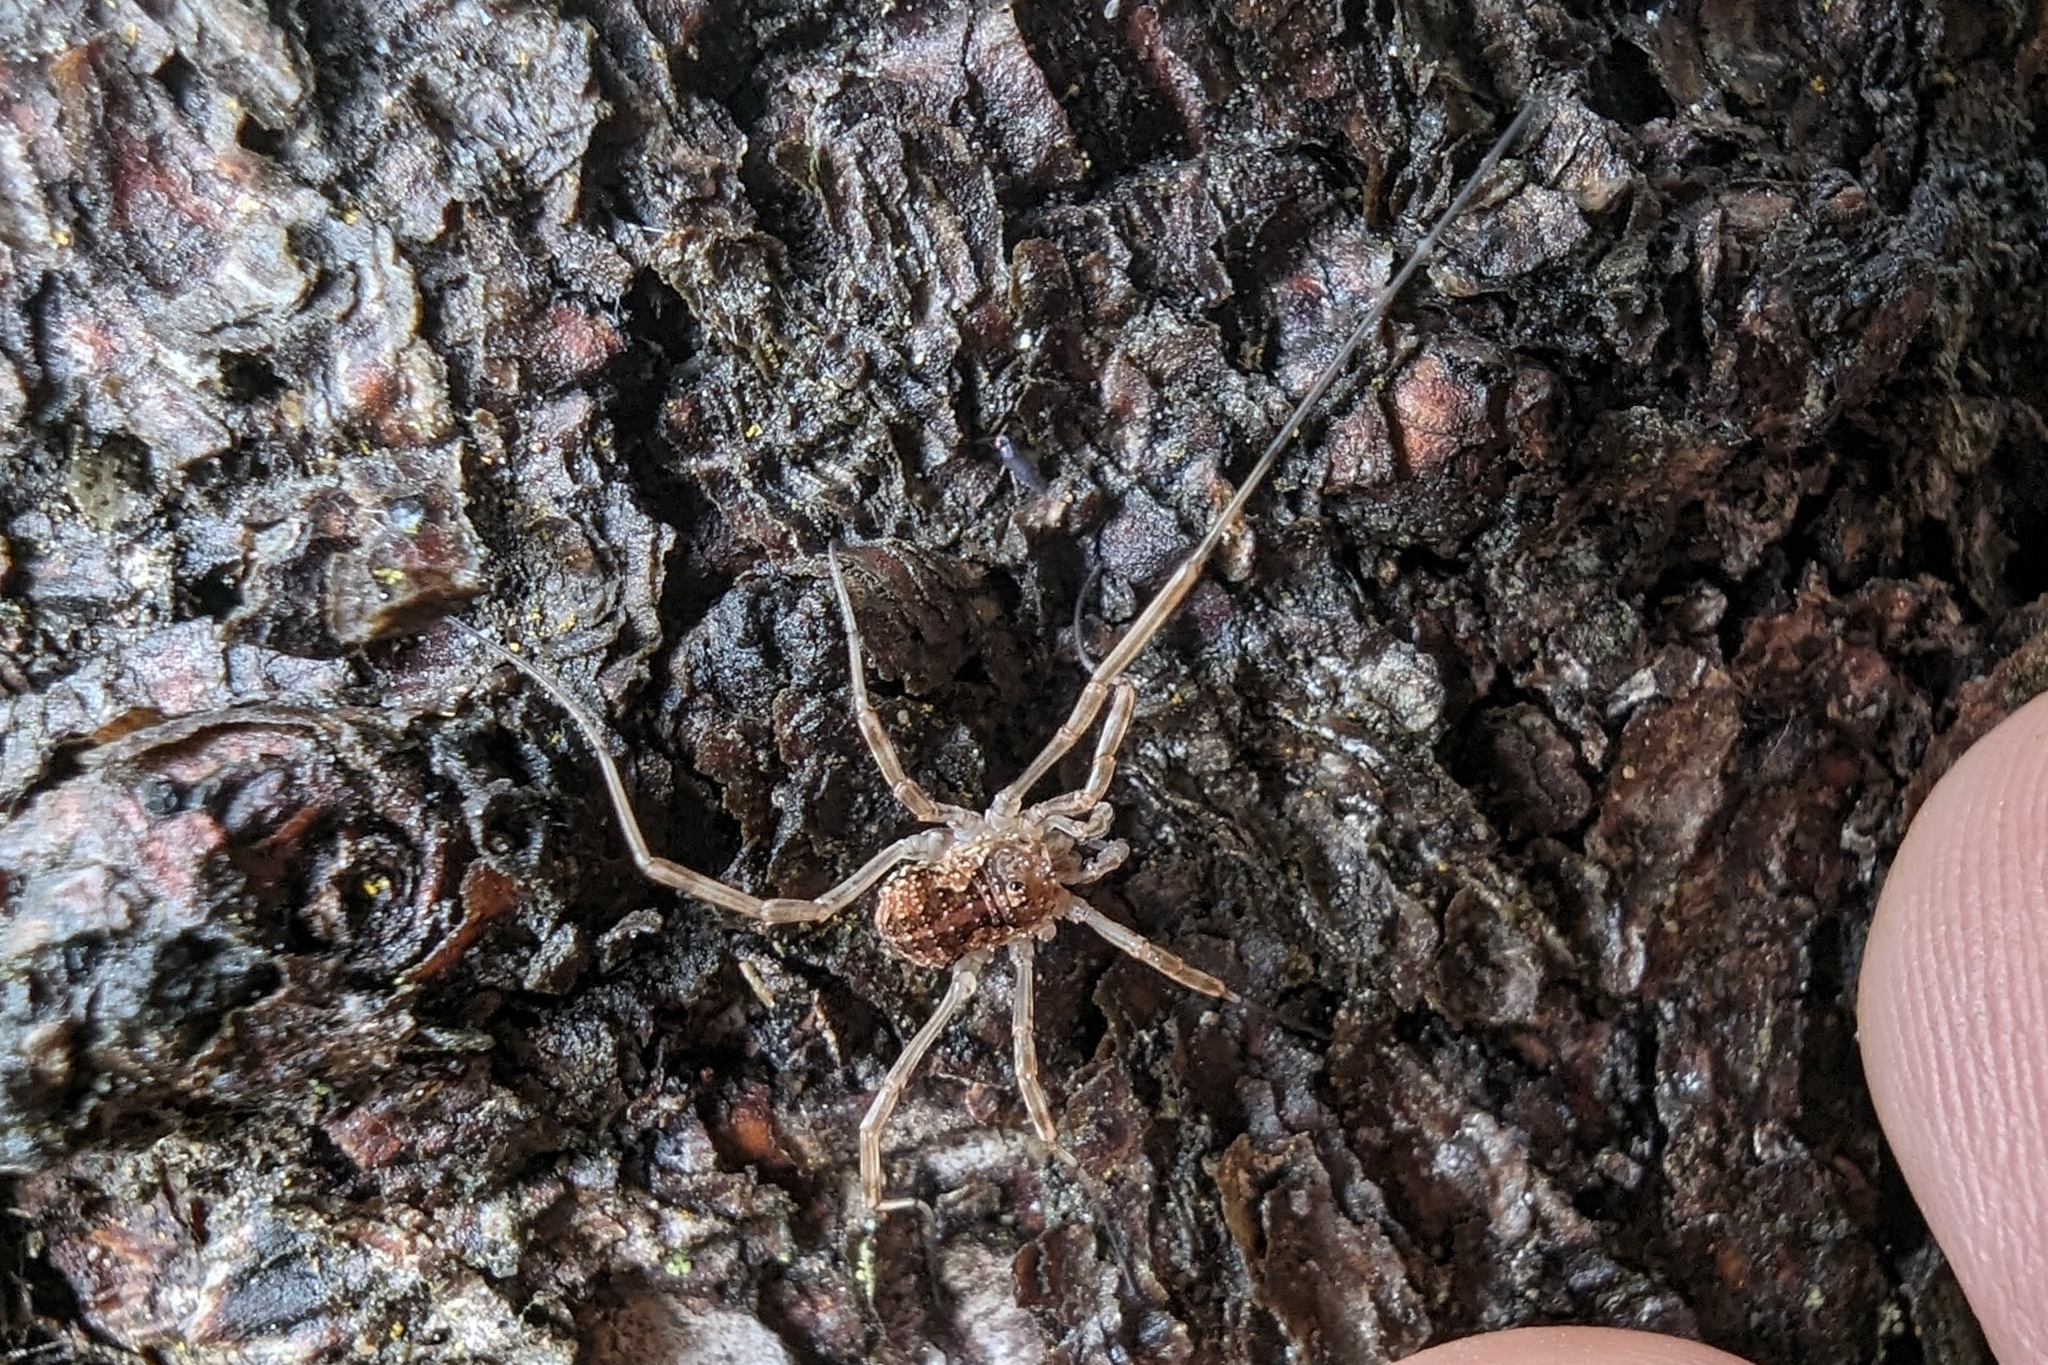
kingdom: Animalia
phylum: Arthropoda
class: Arachnida
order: Opiliones
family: Phalangiidae
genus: Mitopus
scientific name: Mitopus morio
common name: Saddleback harvestman
